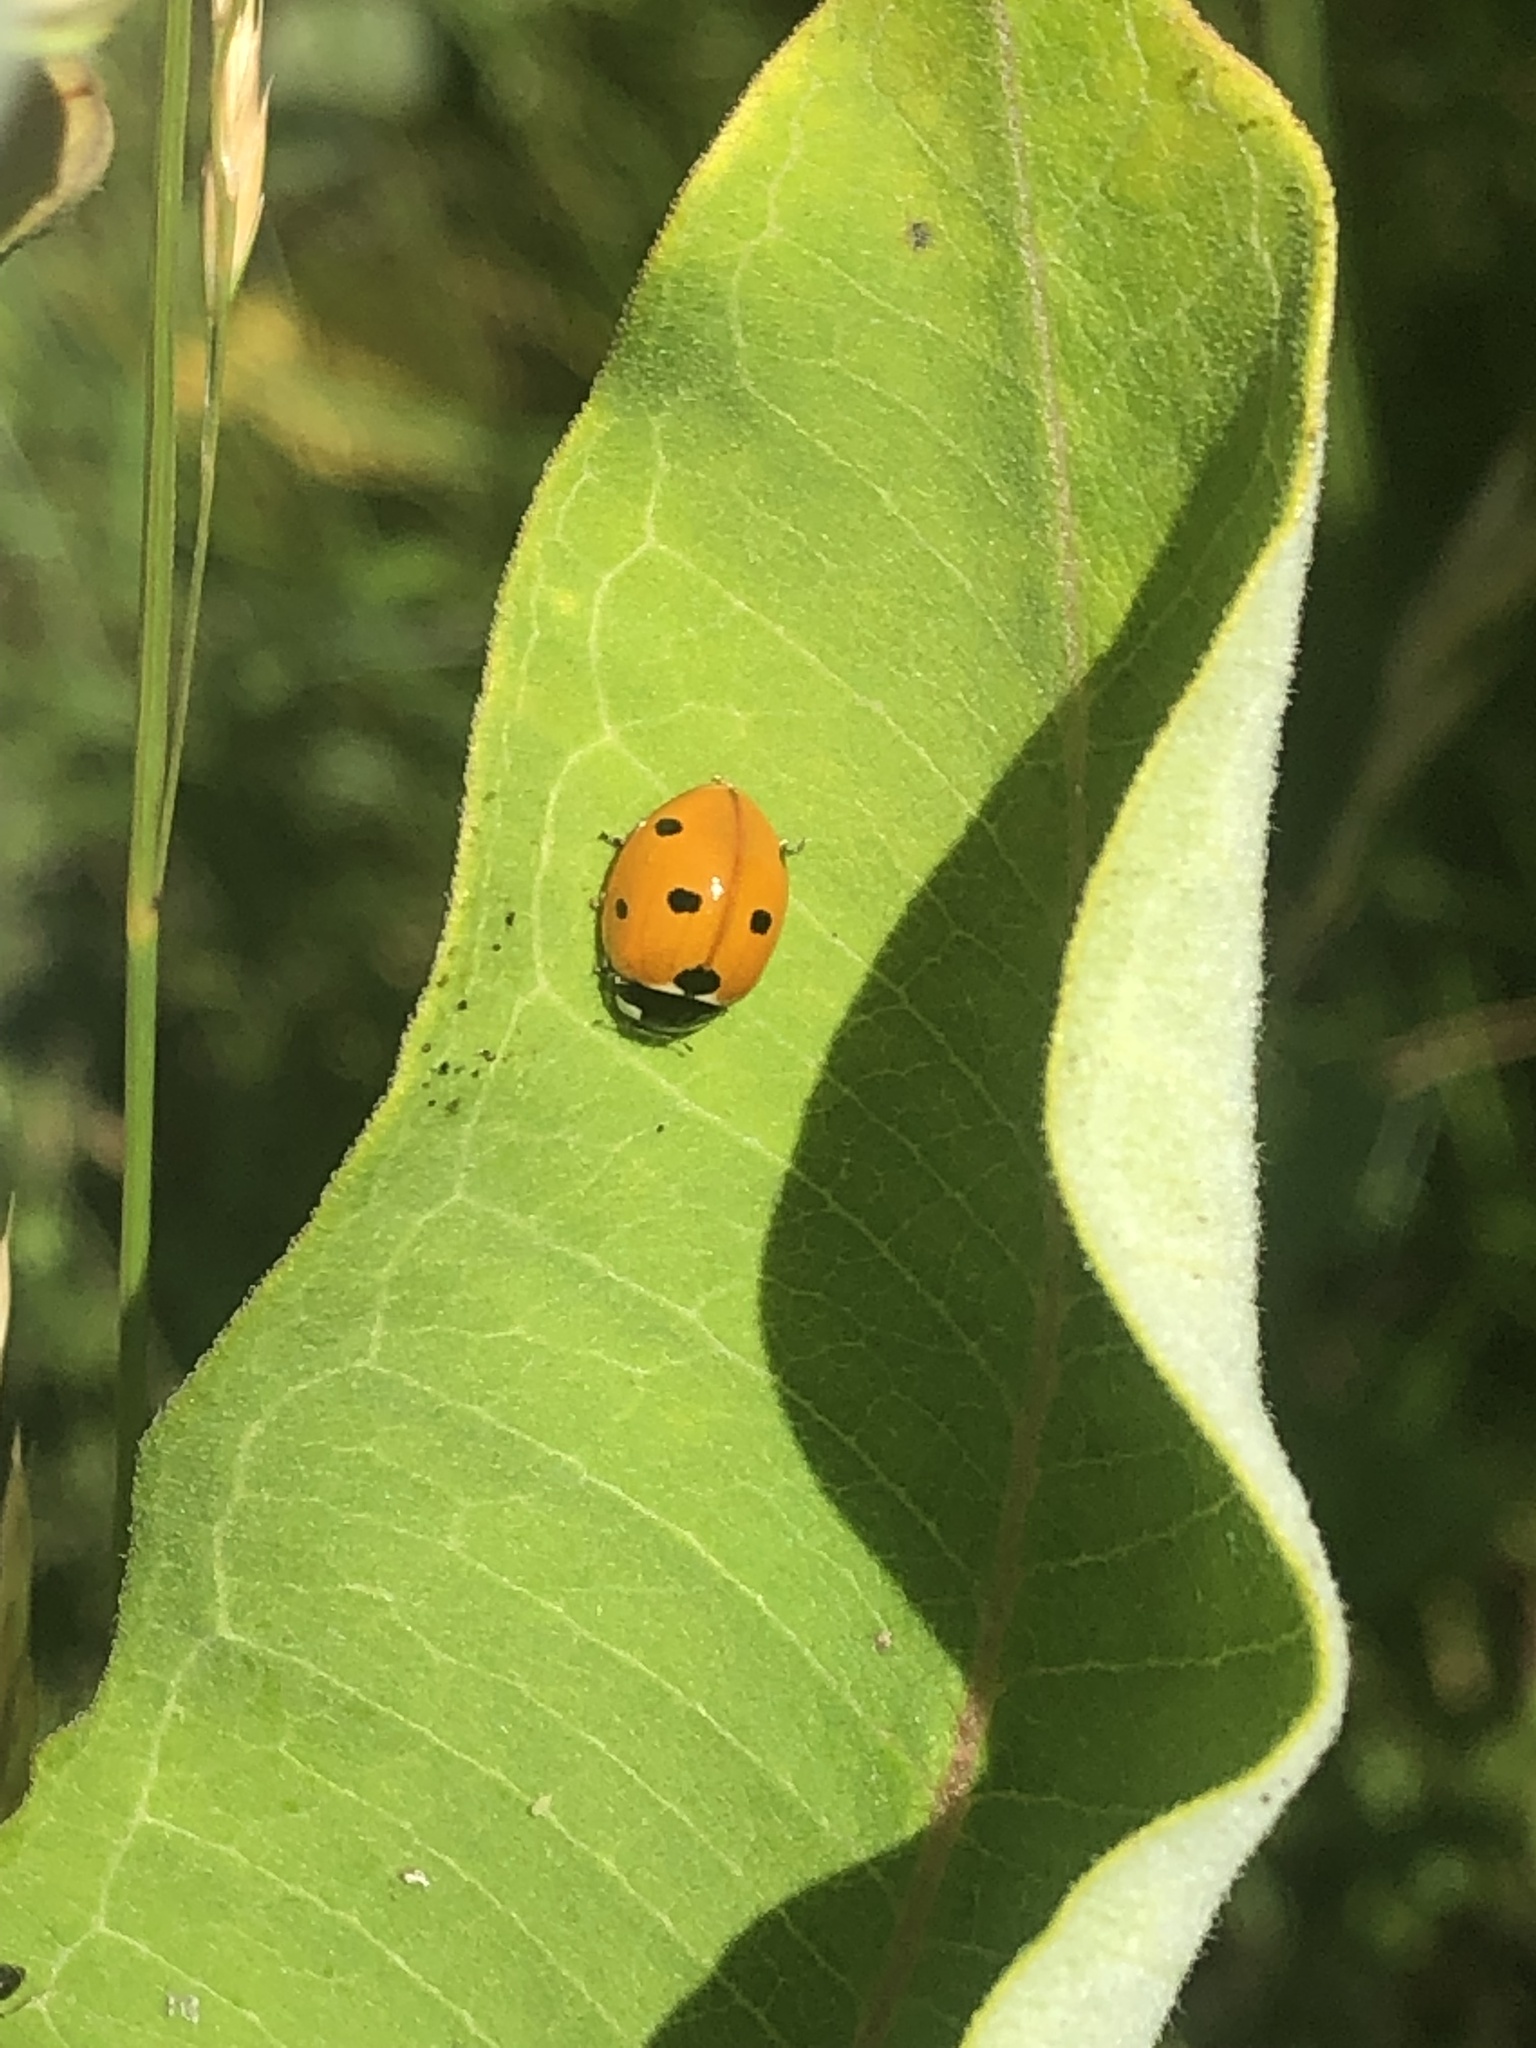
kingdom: Animalia
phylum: Arthropoda
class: Insecta
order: Coleoptera
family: Coccinellidae
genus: Coccinella
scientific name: Coccinella septempunctata
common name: Sevenspotted lady beetle
